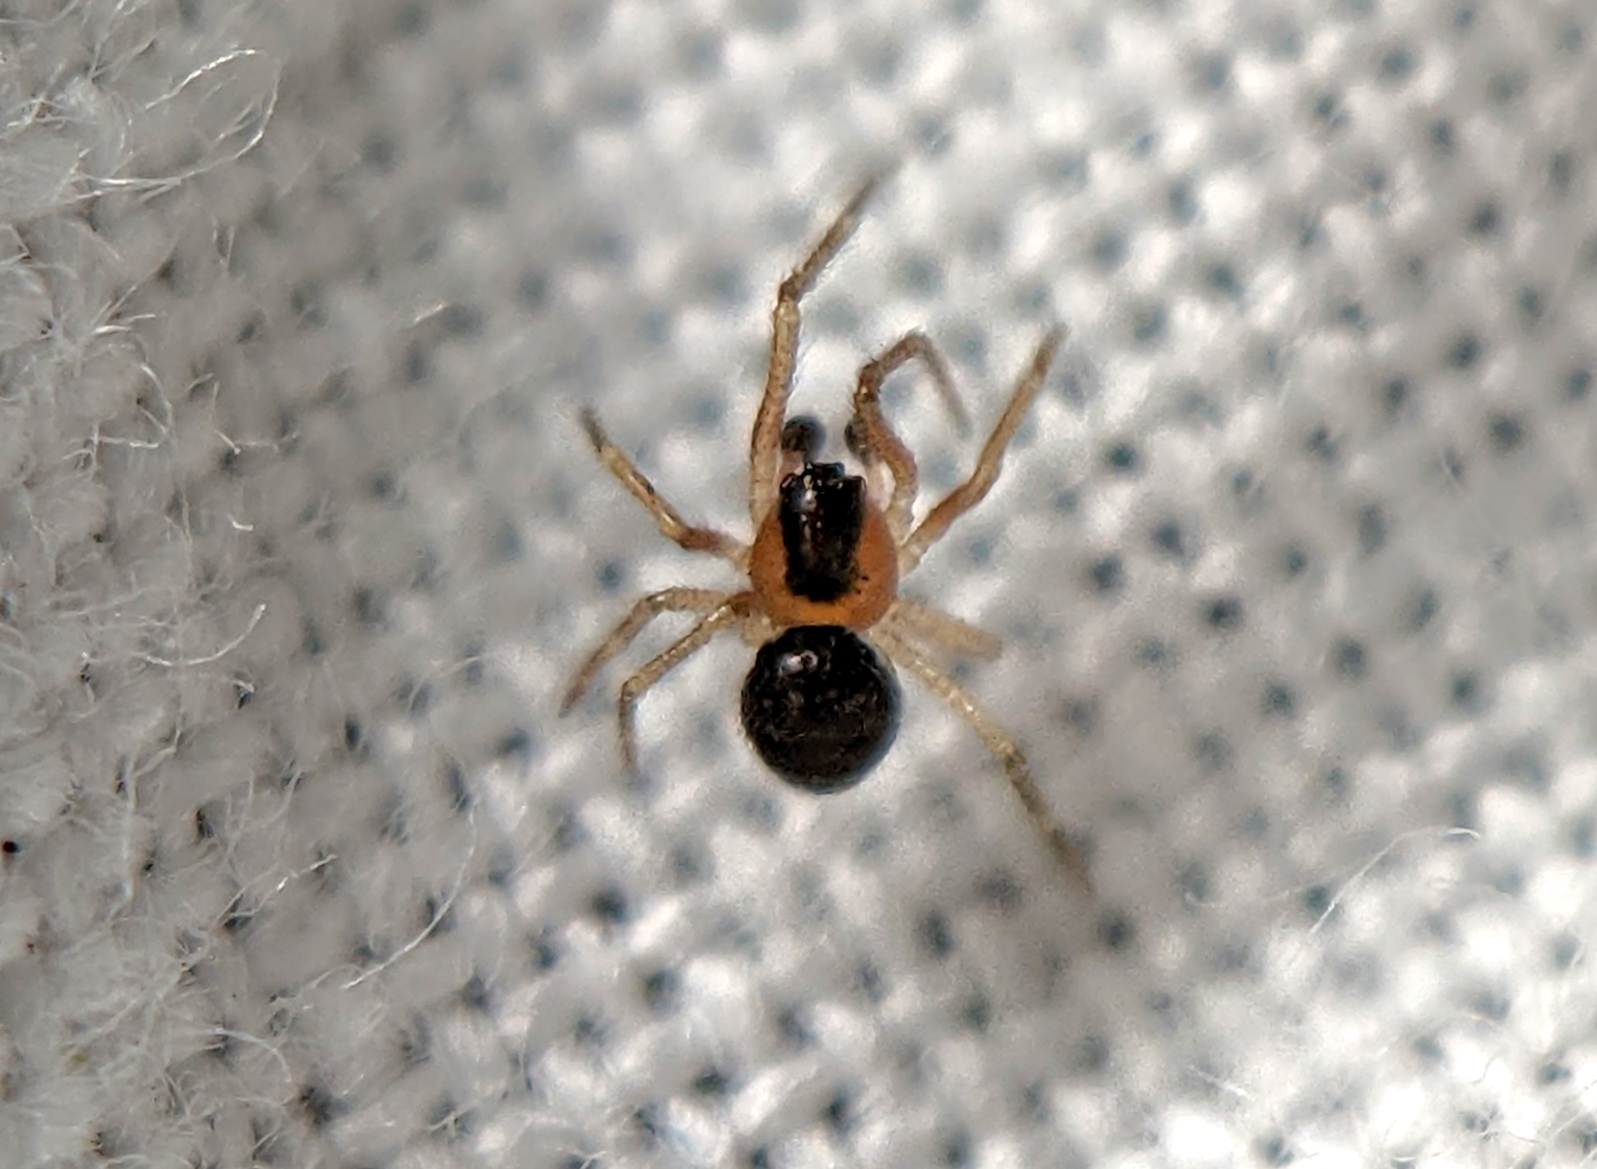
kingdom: Animalia
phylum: Arthropoda
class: Arachnida
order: Araneae
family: Theridiidae
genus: Paidiscura
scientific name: Paidiscura pallens
